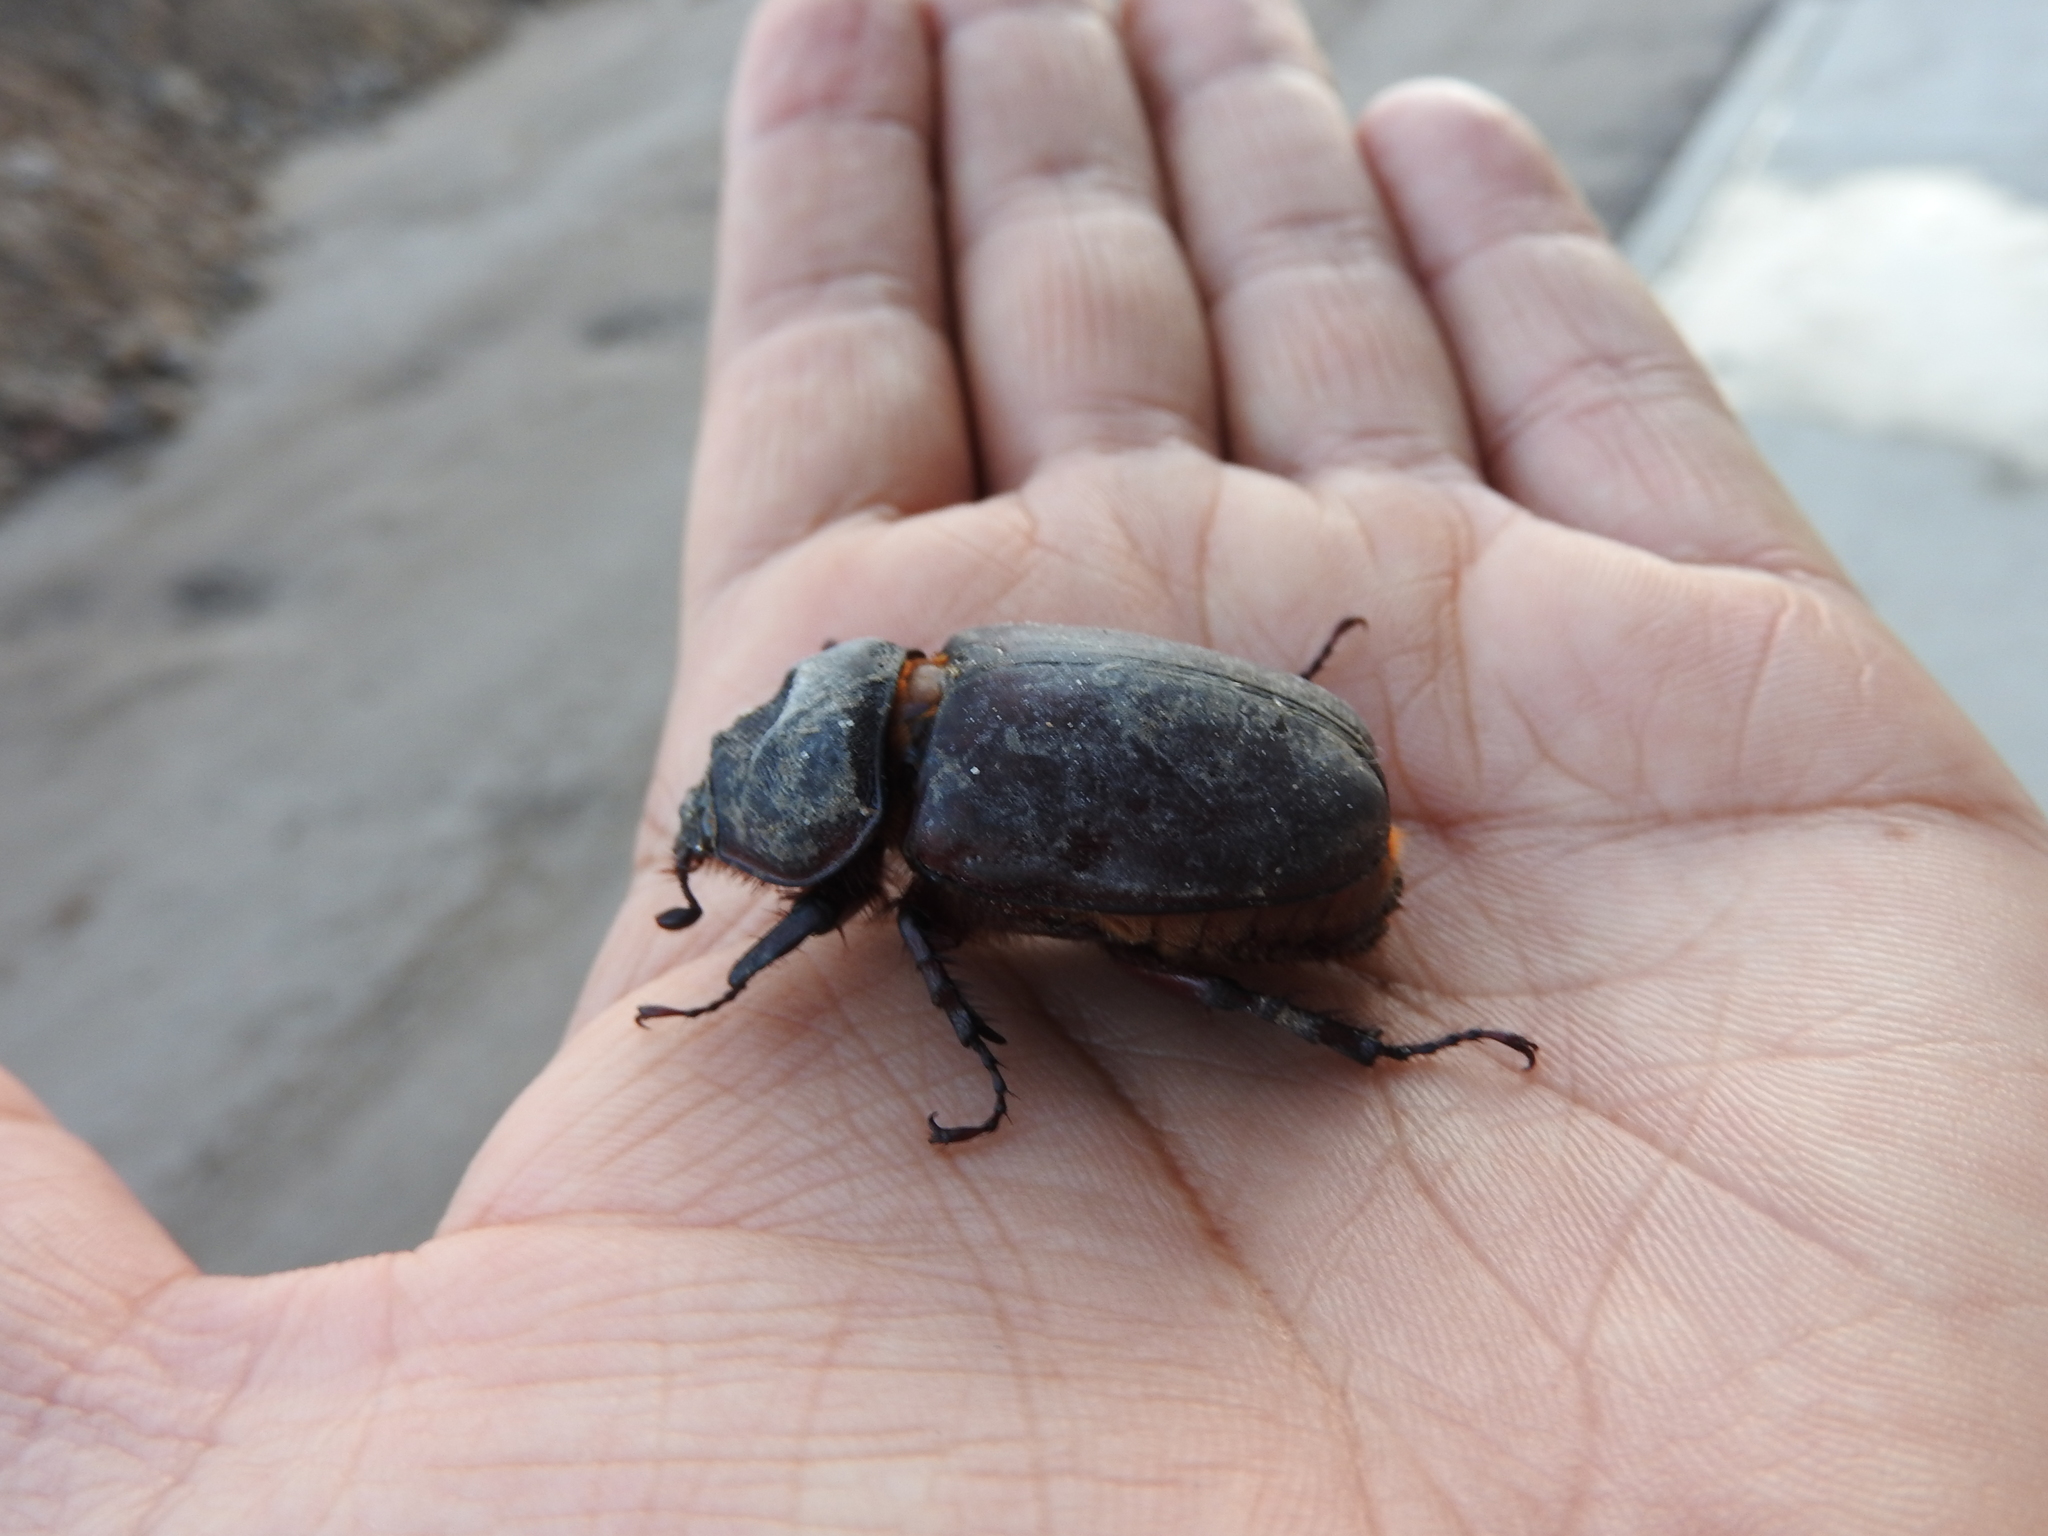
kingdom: Animalia
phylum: Arthropoda
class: Insecta
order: Coleoptera
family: Scarabaeidae
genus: Strategus
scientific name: Strategus aloeus
